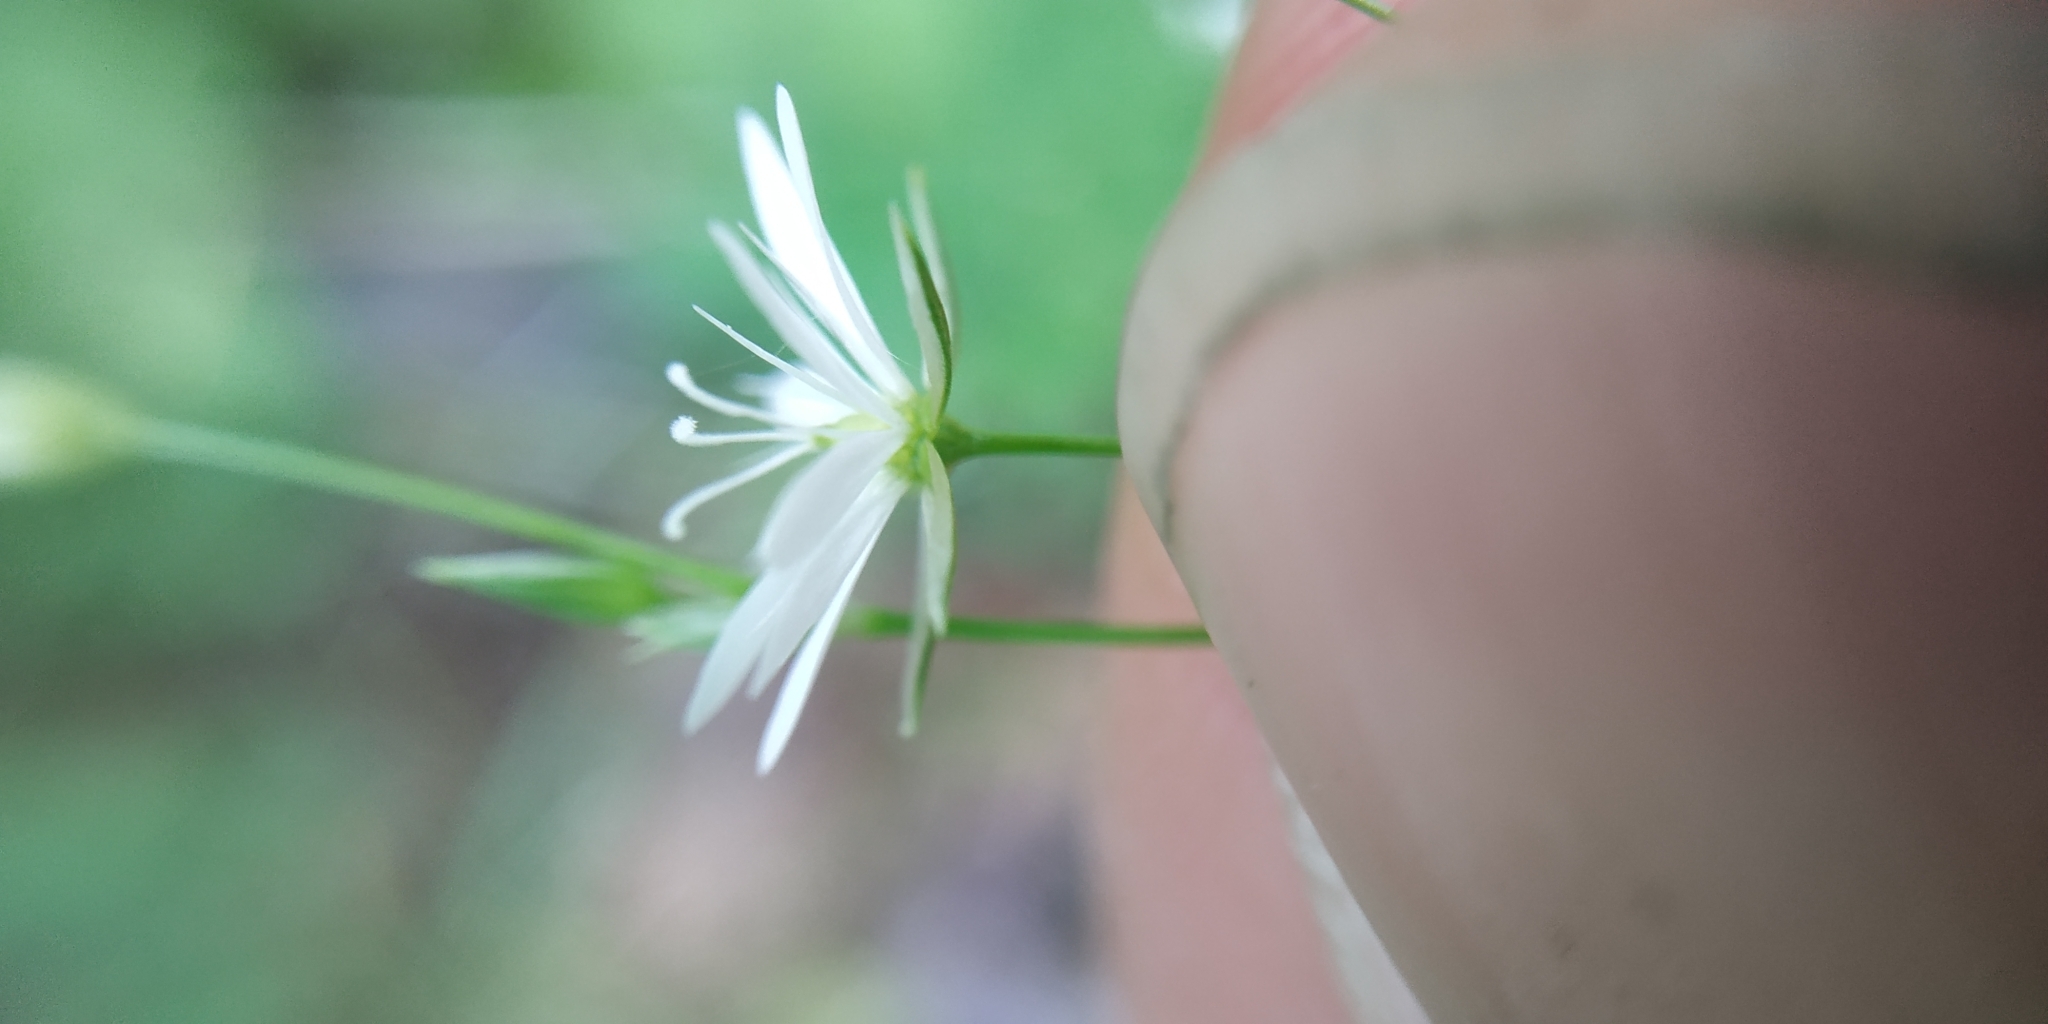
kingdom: Plantae
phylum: Tracheophyta
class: Magnoliopsida
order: Caryophyllales
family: Caryophyllaceae
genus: Stellaria
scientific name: Stellaria graminea
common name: Grass-like starwort
